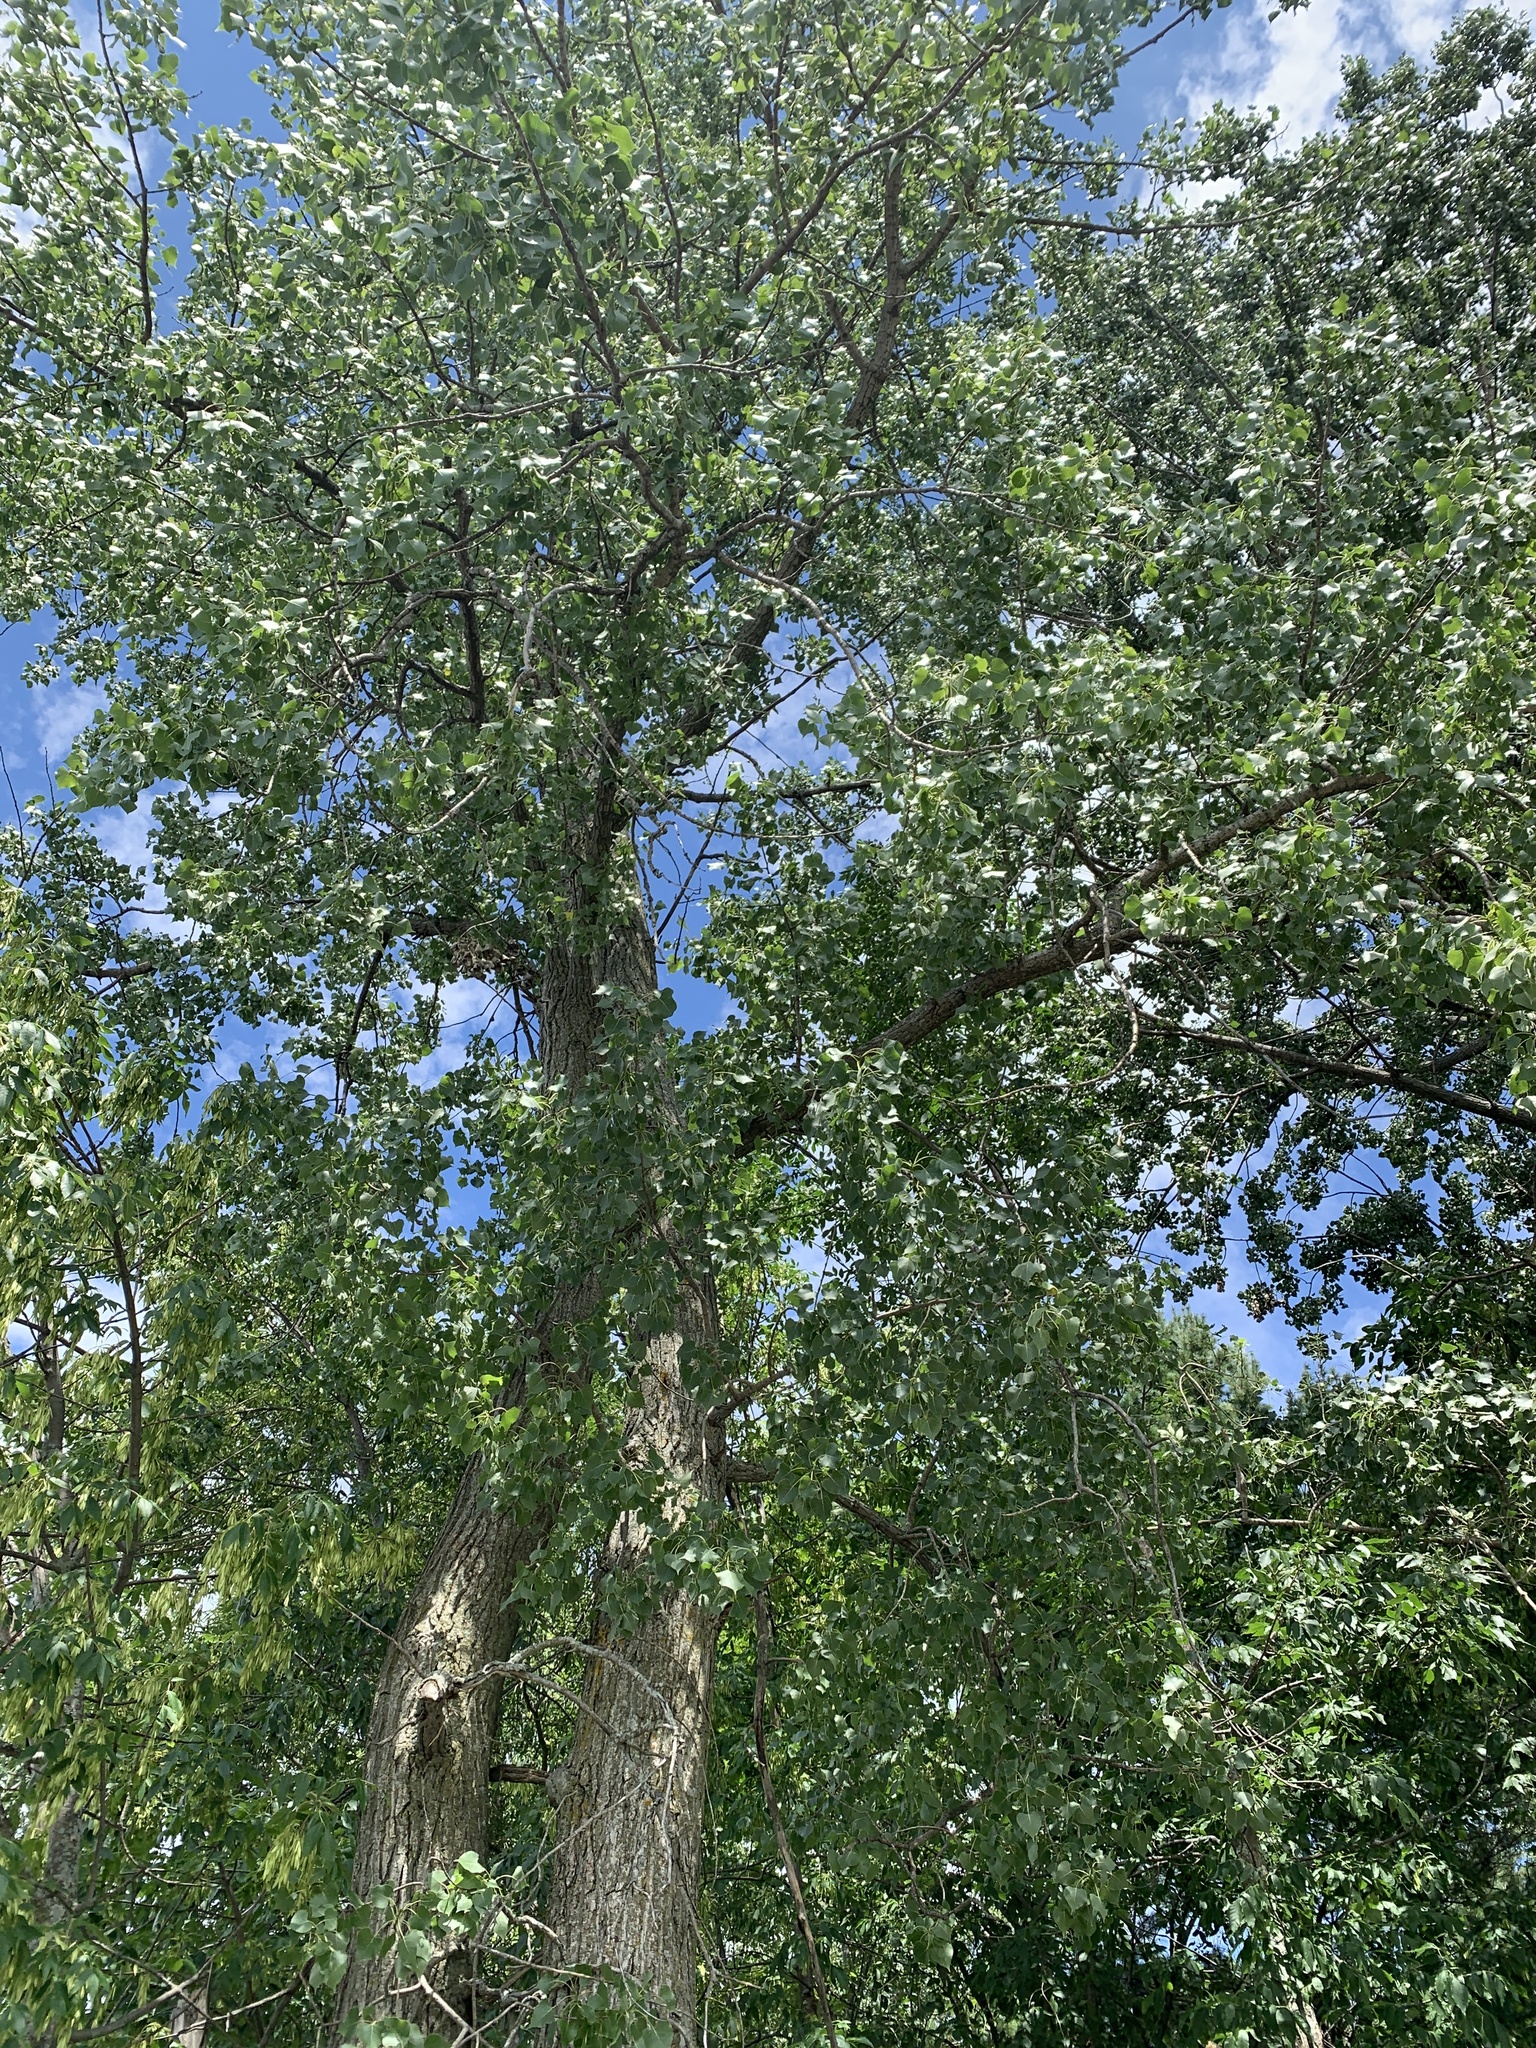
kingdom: Plantae
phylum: Tracheophyta
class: Magnoliopsida
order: Malpighiales
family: Salicaceae
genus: Populus
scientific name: Populus deltoides
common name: Eastern cottonwood
